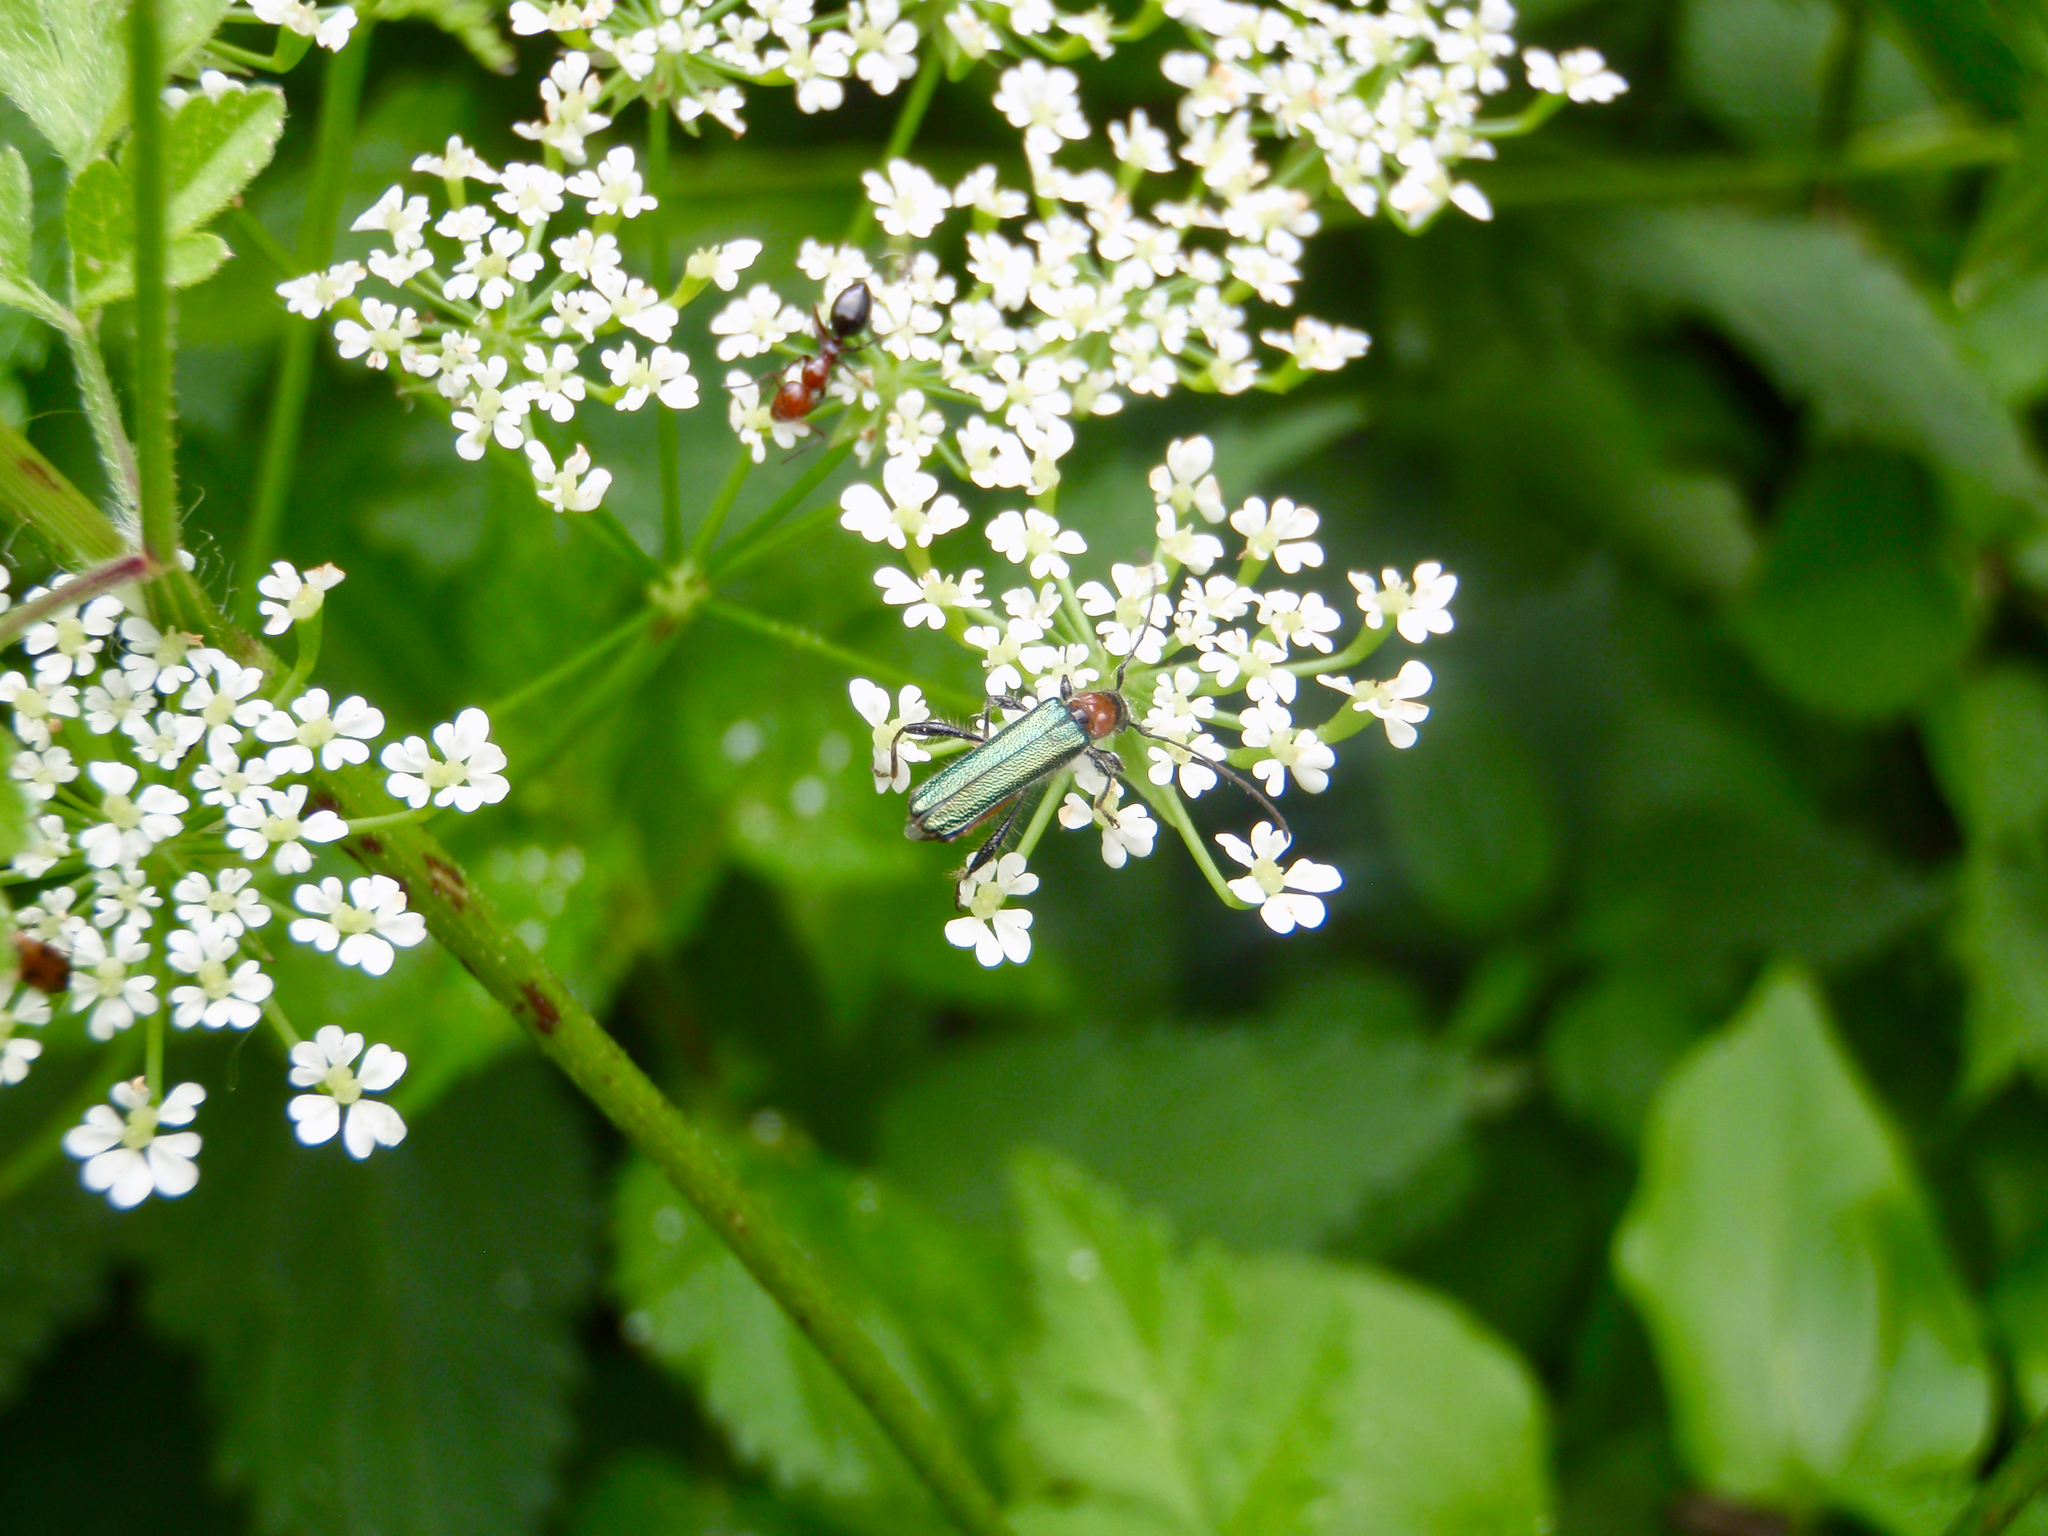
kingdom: Animalia
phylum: Arthropoda
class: Insecta
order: Coleoptera
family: Cerambycidae
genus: Callimus
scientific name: Callimus abdominale
